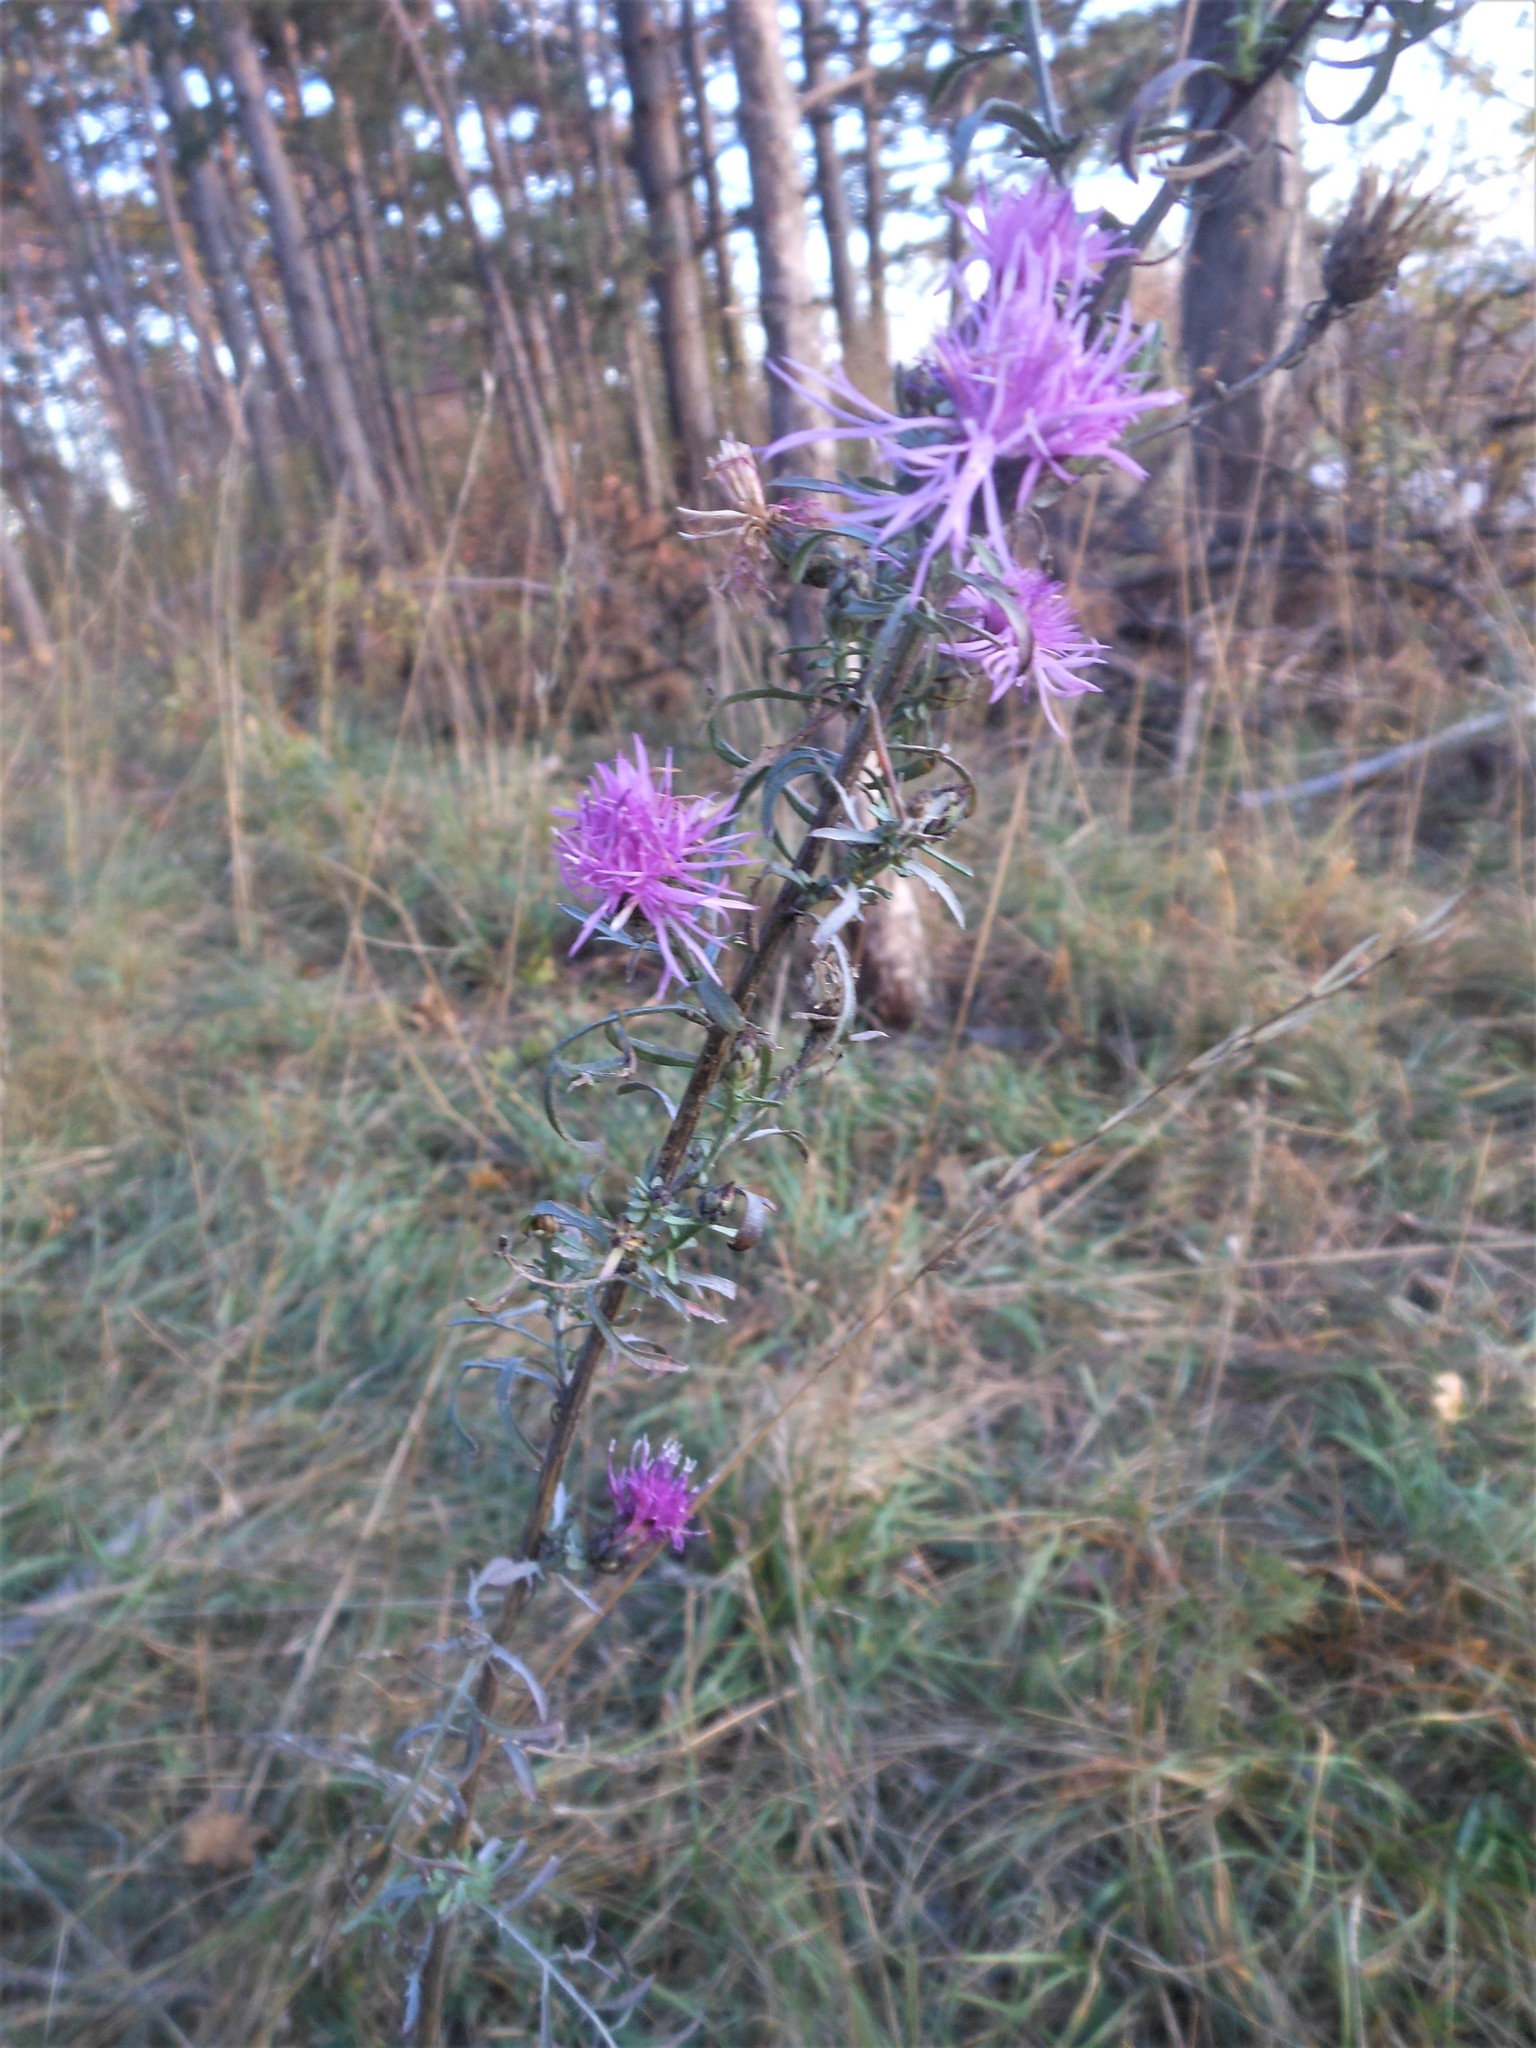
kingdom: Plantae
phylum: Tracheophyta
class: Magnoliopsida
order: Asterales
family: Asteraceae
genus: Centaurea
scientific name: Centaurea stoebe
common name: Spotted knapweed
